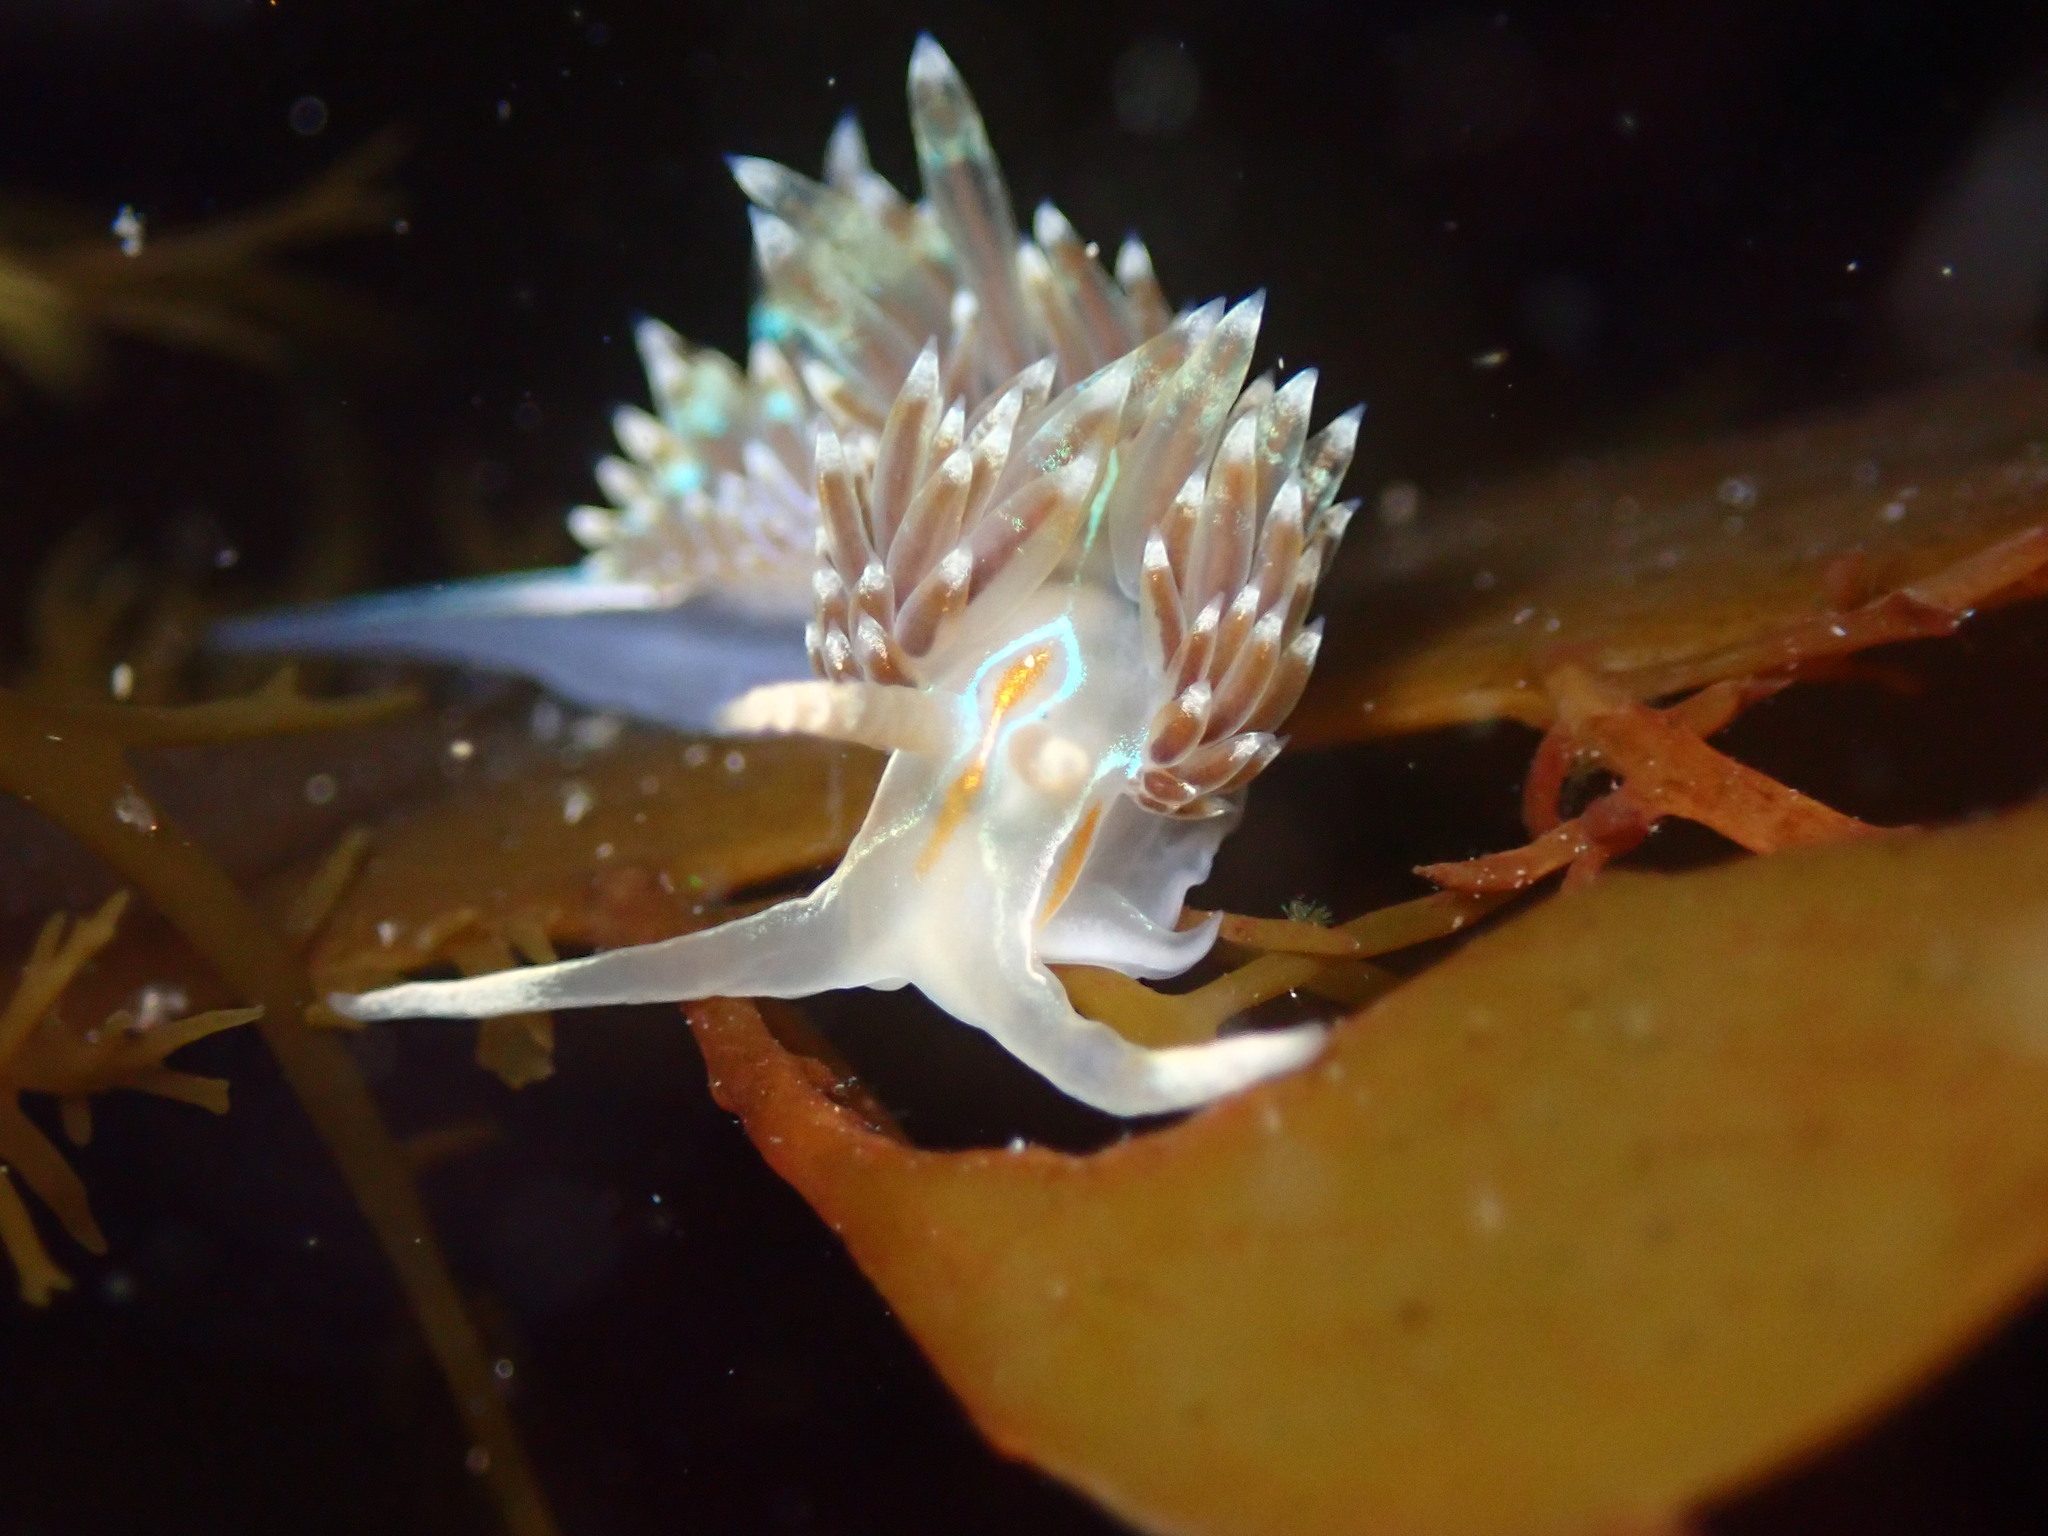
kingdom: Animalia
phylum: Mollusca
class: Gastropoda
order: Nudibranchia
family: Myrrhinidae
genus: Hermissenda
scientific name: Hermissenda opalescens
